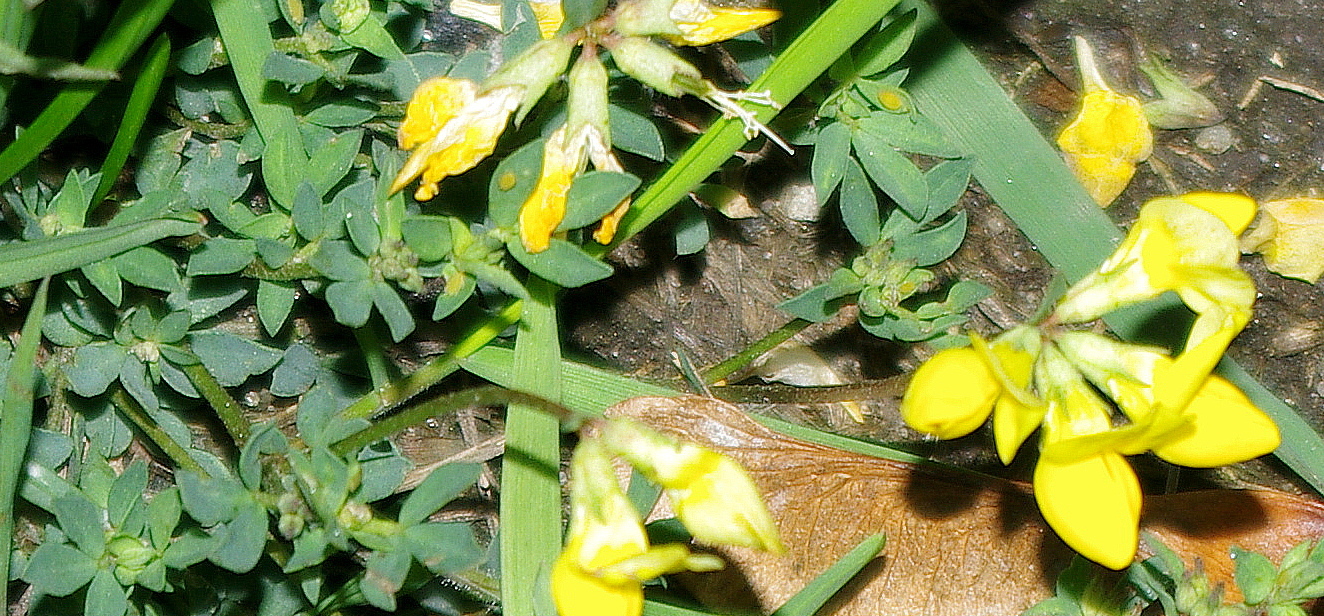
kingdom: Plantae
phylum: Tracheophyta
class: Magnoliopsida
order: Fabales
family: Fabaceae
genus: Lotus
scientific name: Lotus corniculatus
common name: Common bird's-foot-trefoil
